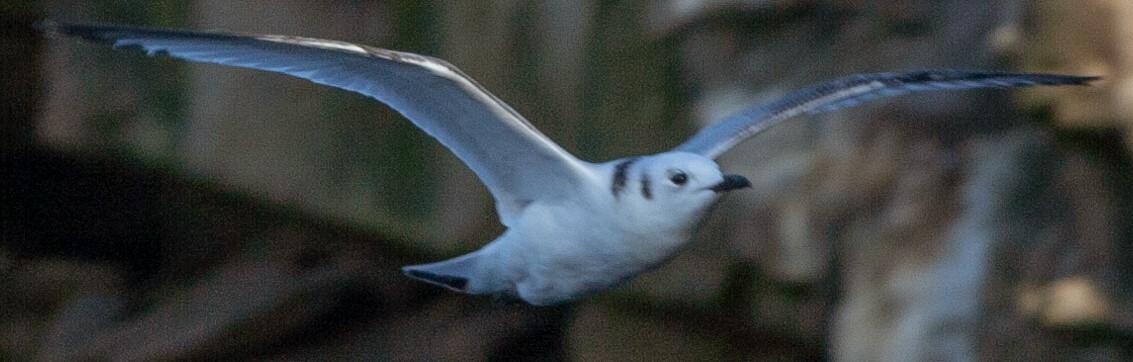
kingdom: Animalia
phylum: Chordata
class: Aves
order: Charadriiformes
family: Laridae
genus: Rissa
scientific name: Rissa tridactyla
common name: Black-legged kittiwake
